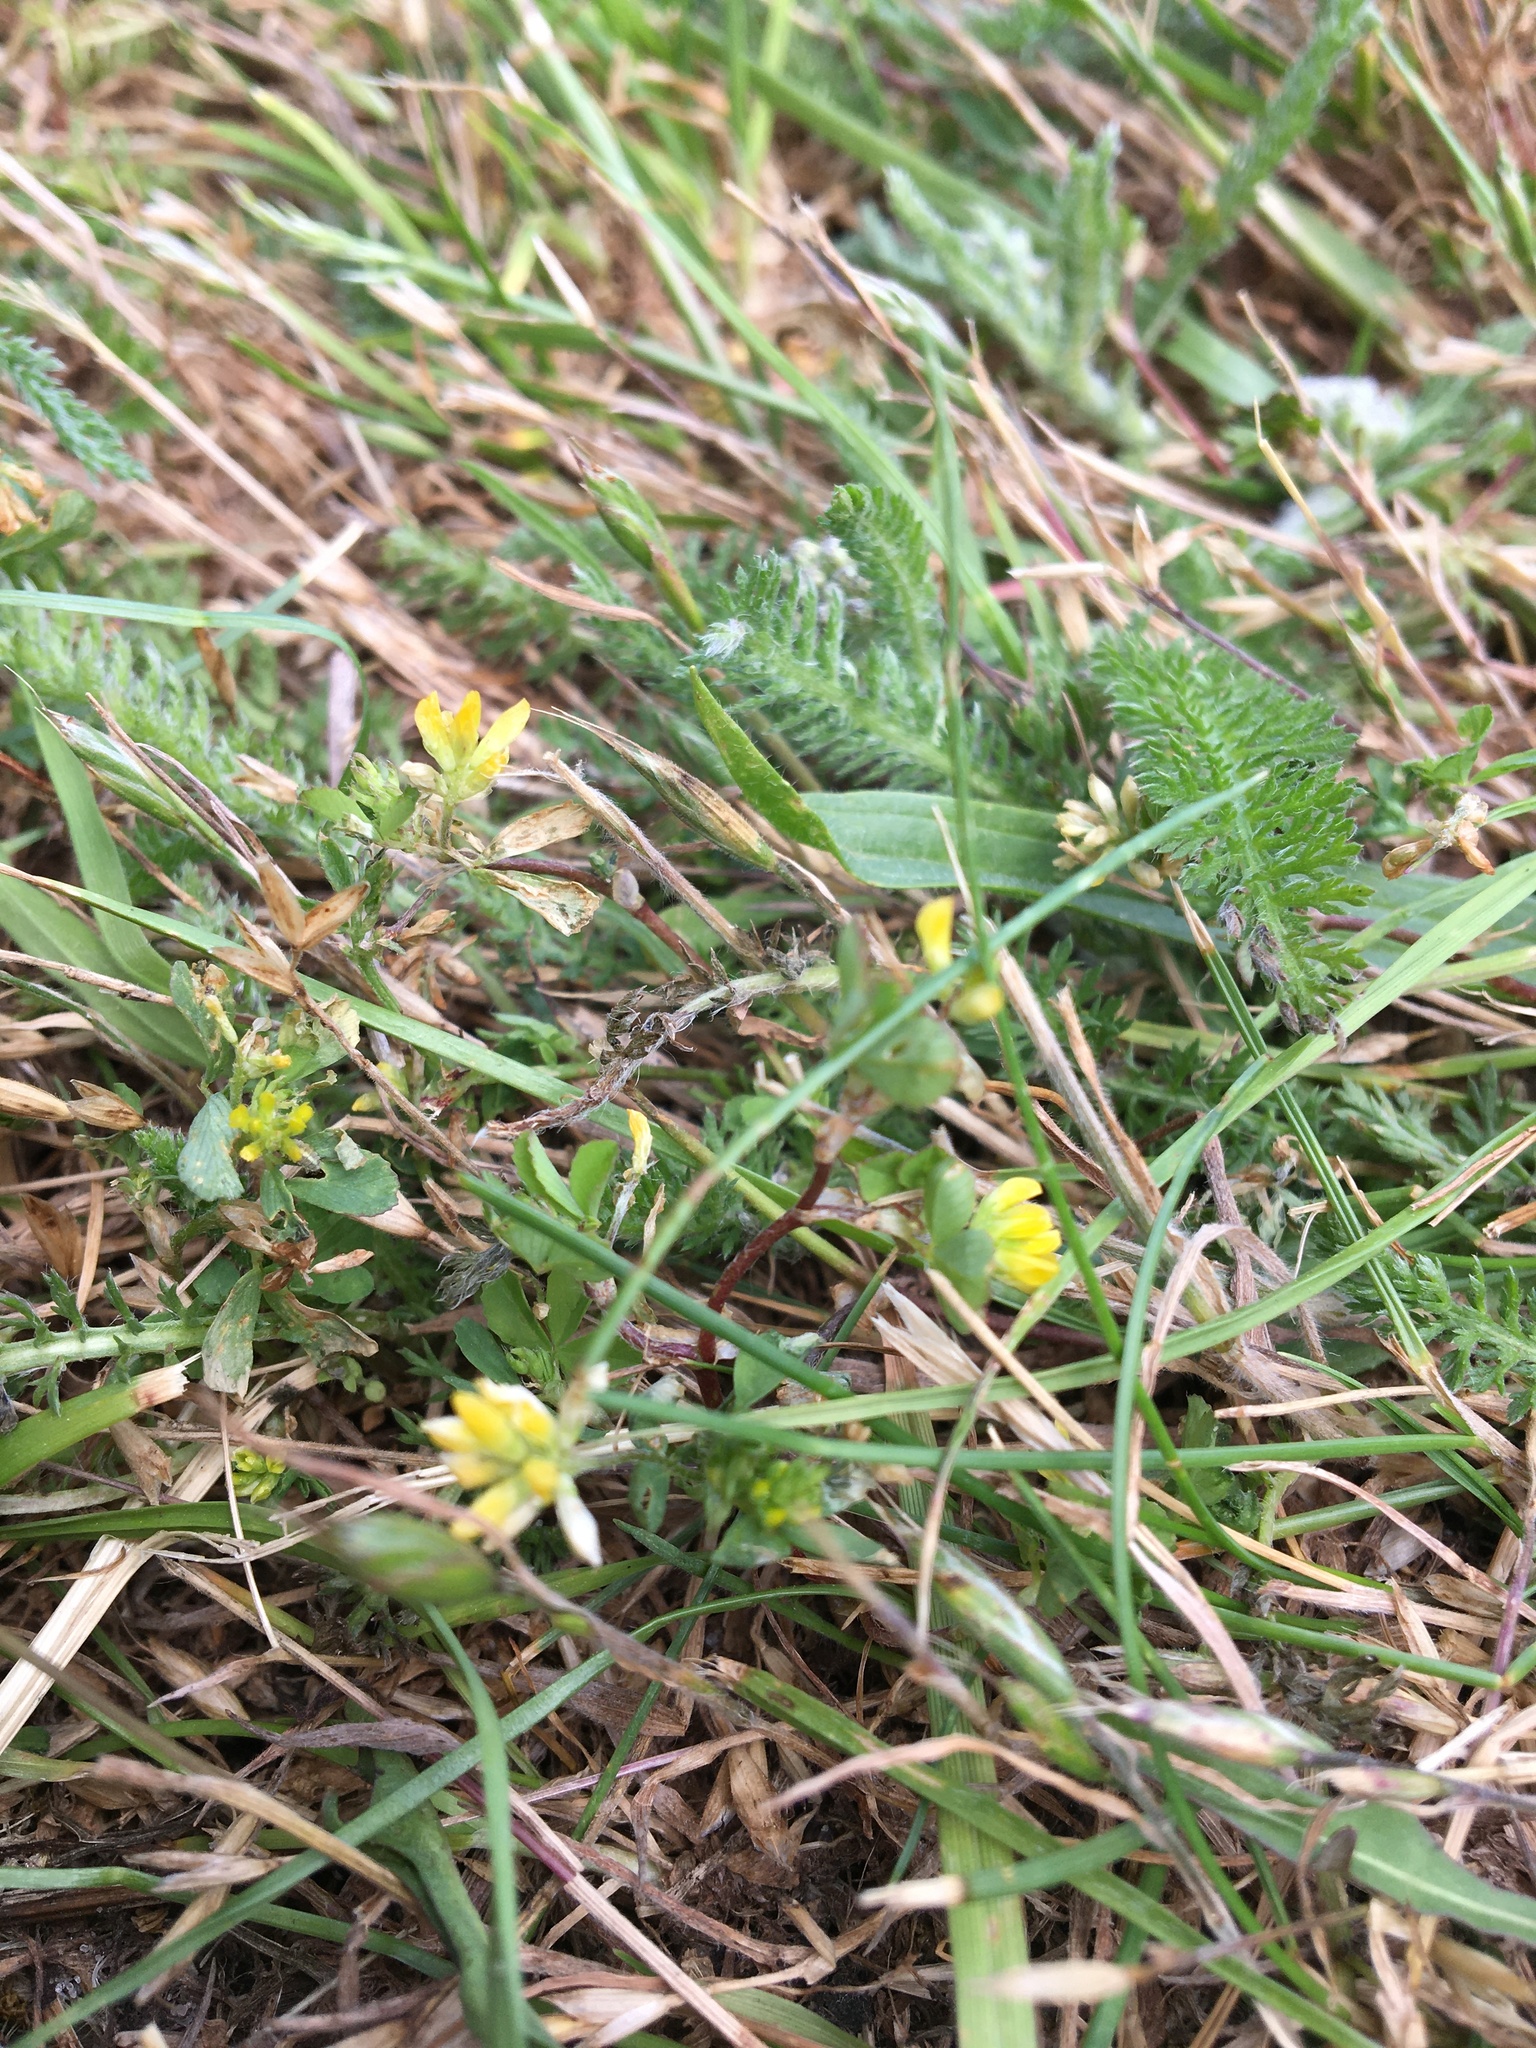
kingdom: Plantae
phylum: Tracheophyta
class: Magnoliopsida
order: Fabales
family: Fabaceae
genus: Trifolium
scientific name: Trifolium dubium
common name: Suckling clover
